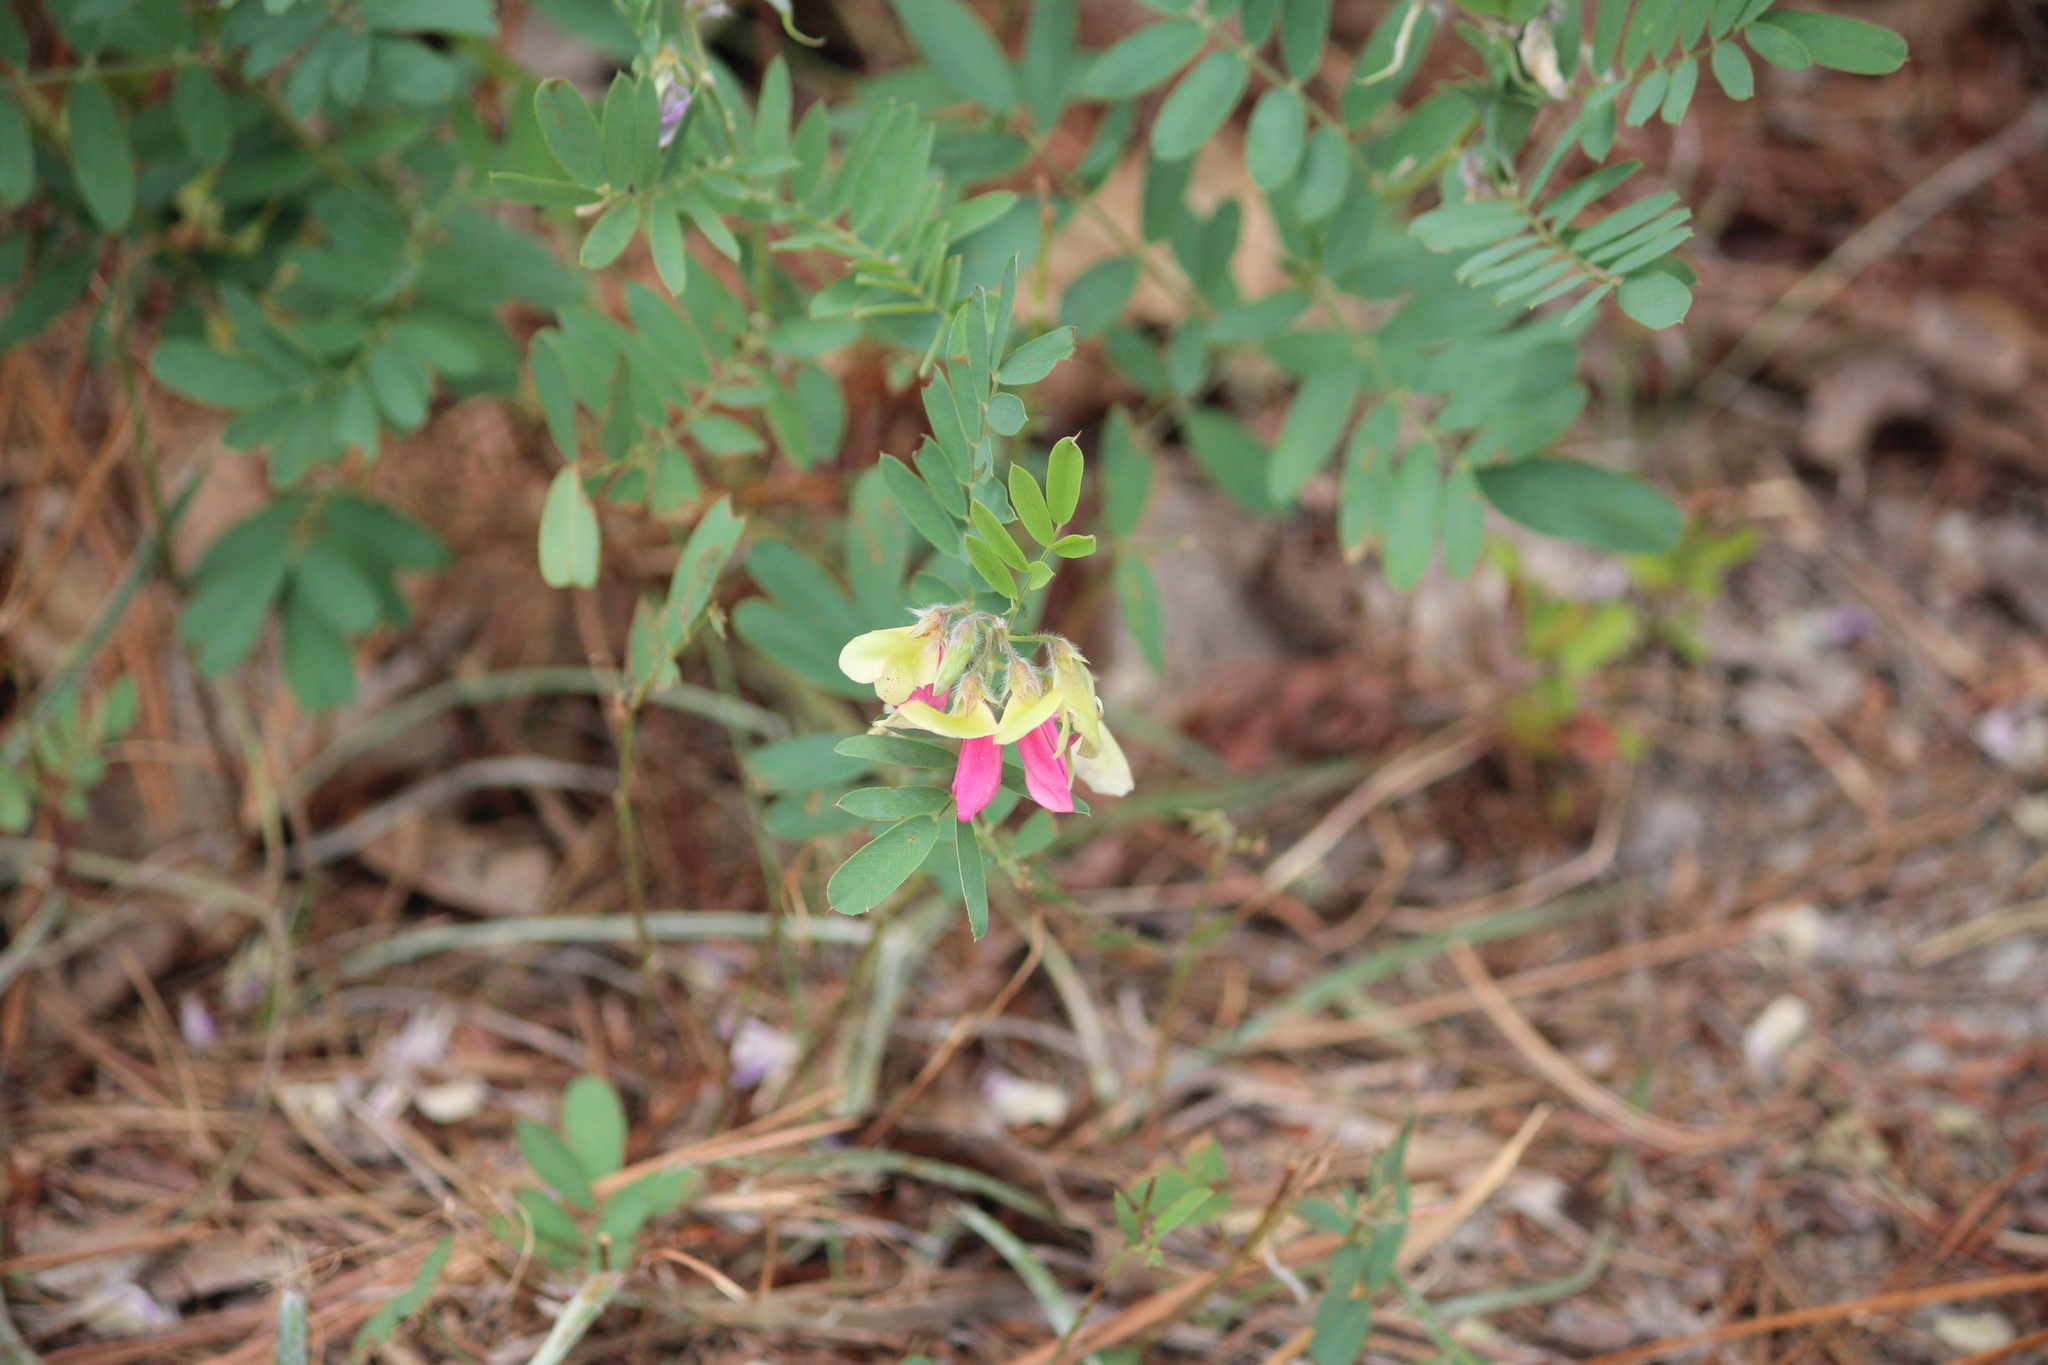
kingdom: Plantae
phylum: Tracheophyta
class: Magnoliopsida
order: Fabales
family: Fabaceae
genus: Tephrosia
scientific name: Tephrosia virginiana
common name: Rabbit-pea
